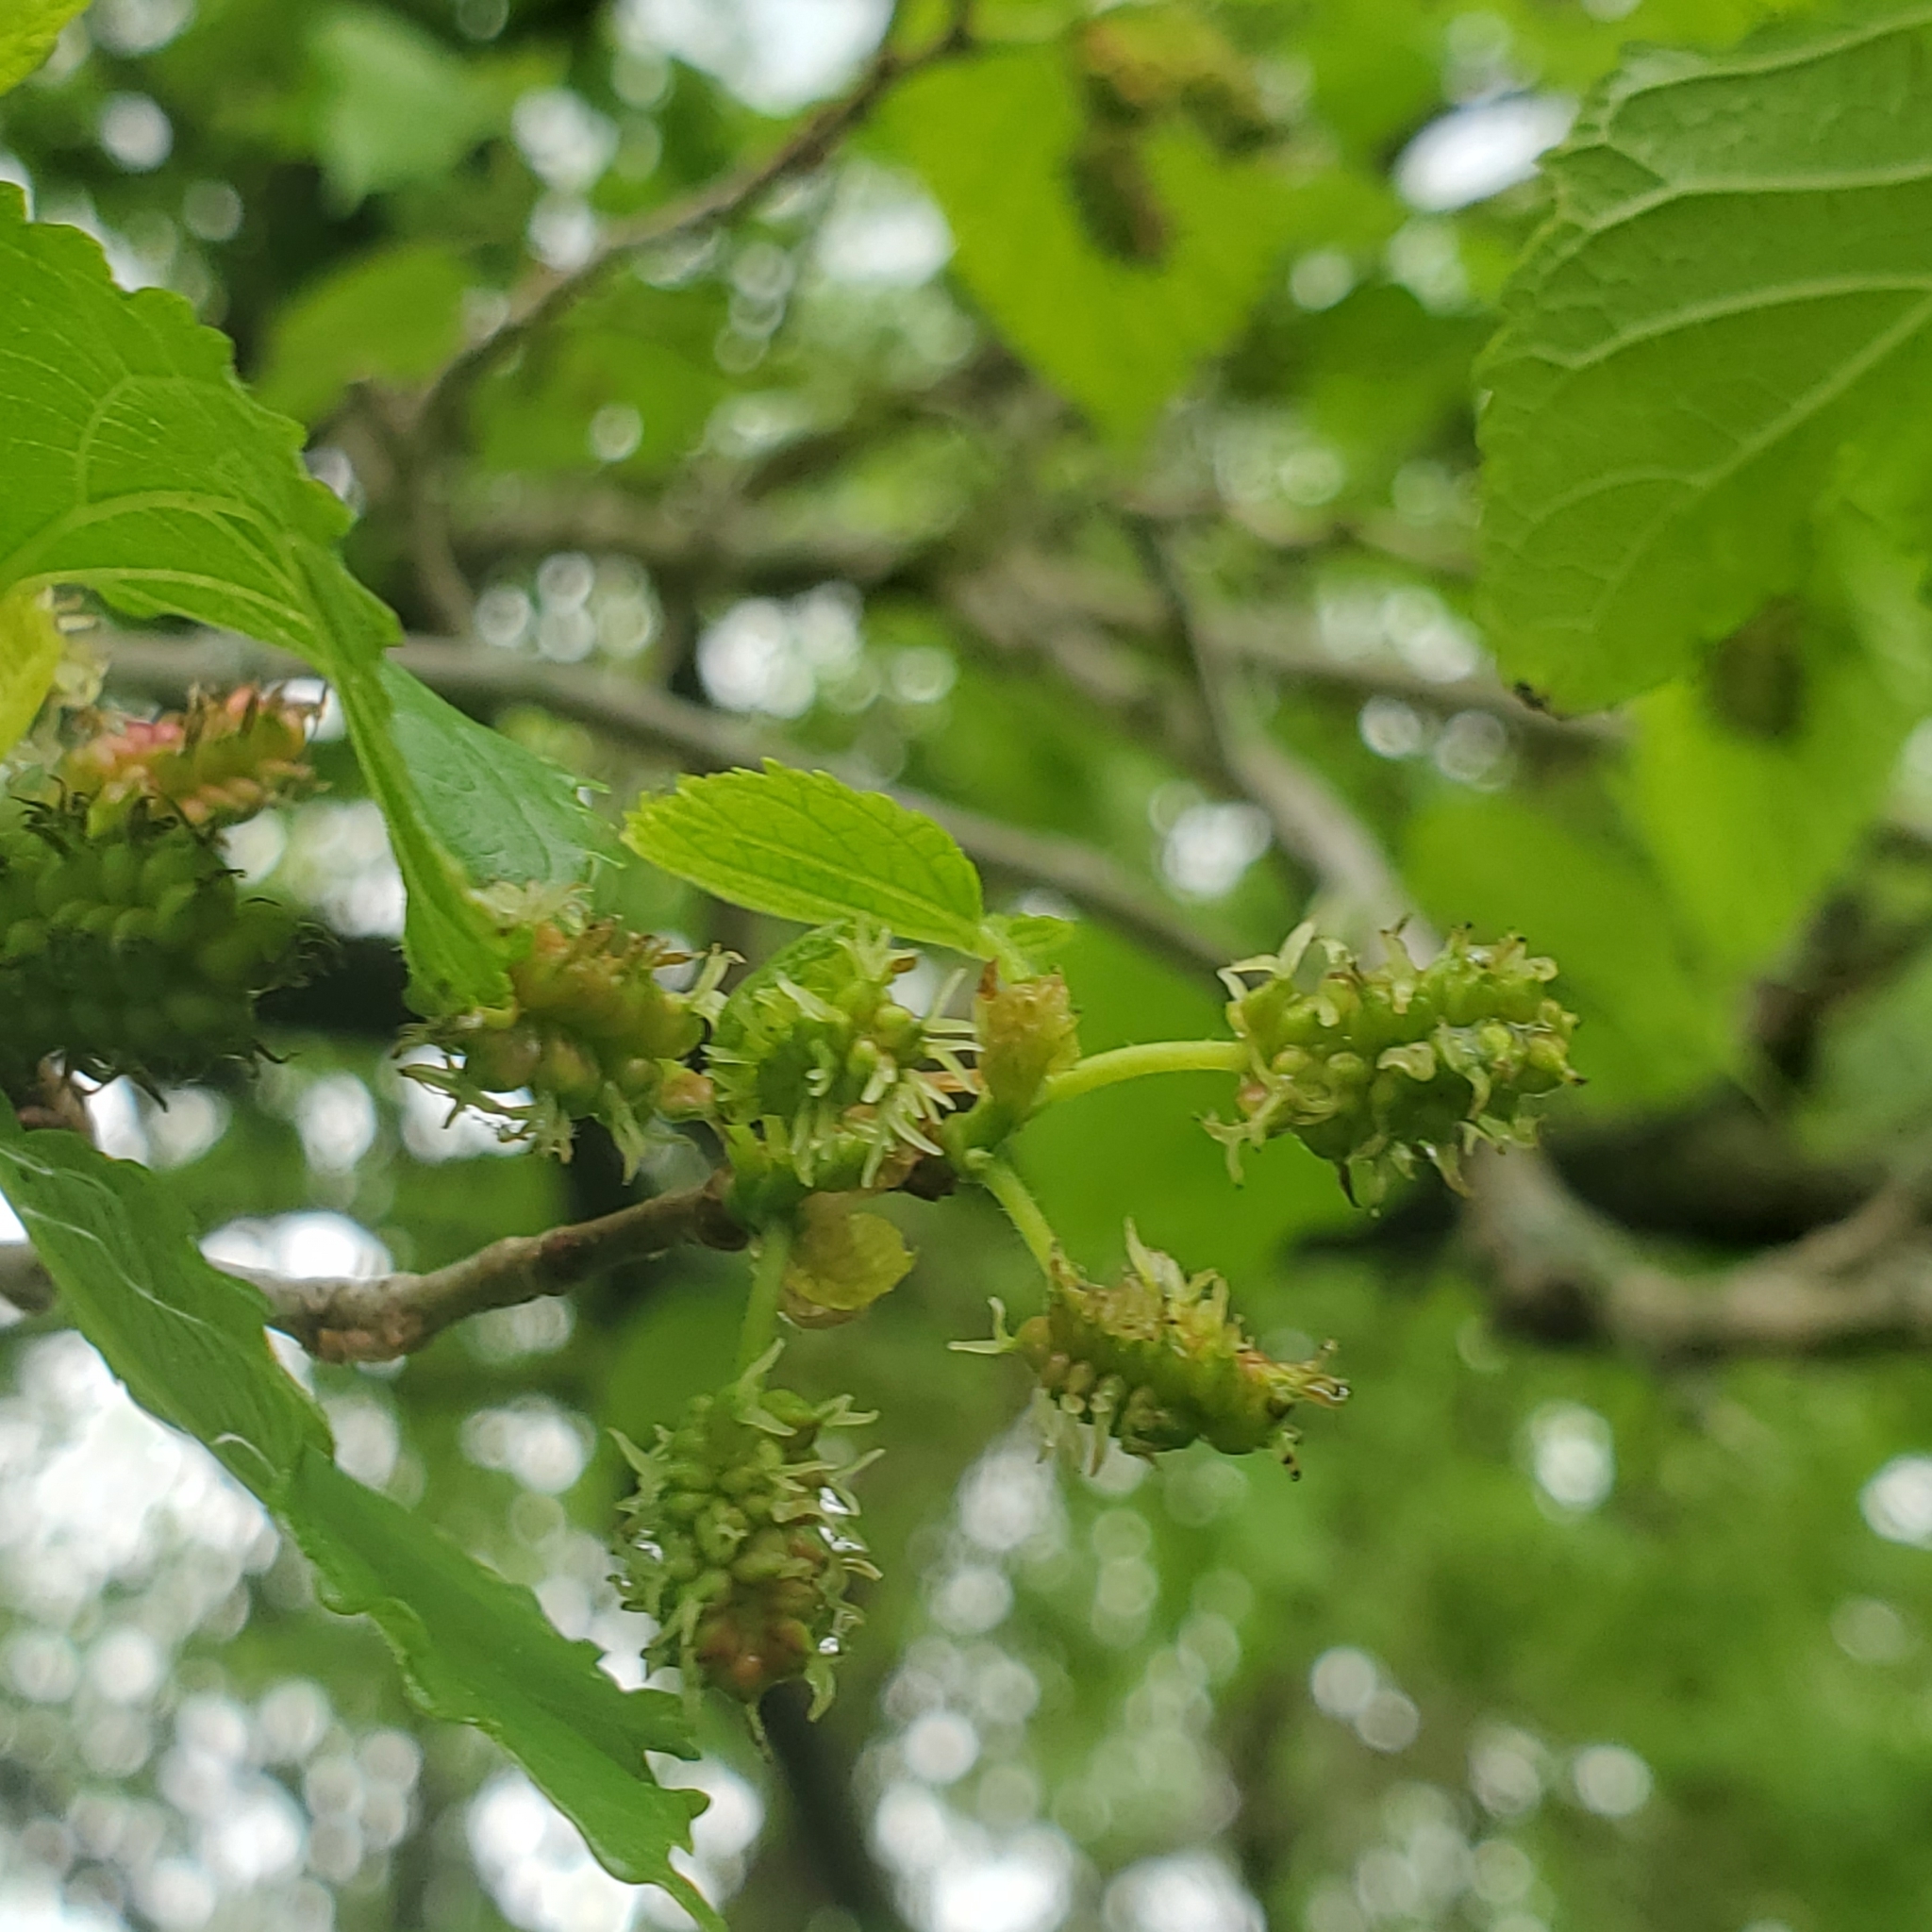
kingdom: Plantae
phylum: Tracheophyta
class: Magnoliopsida
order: Rosales
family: Moraceae
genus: Morus
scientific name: Morus rubra
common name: Red mulberry
